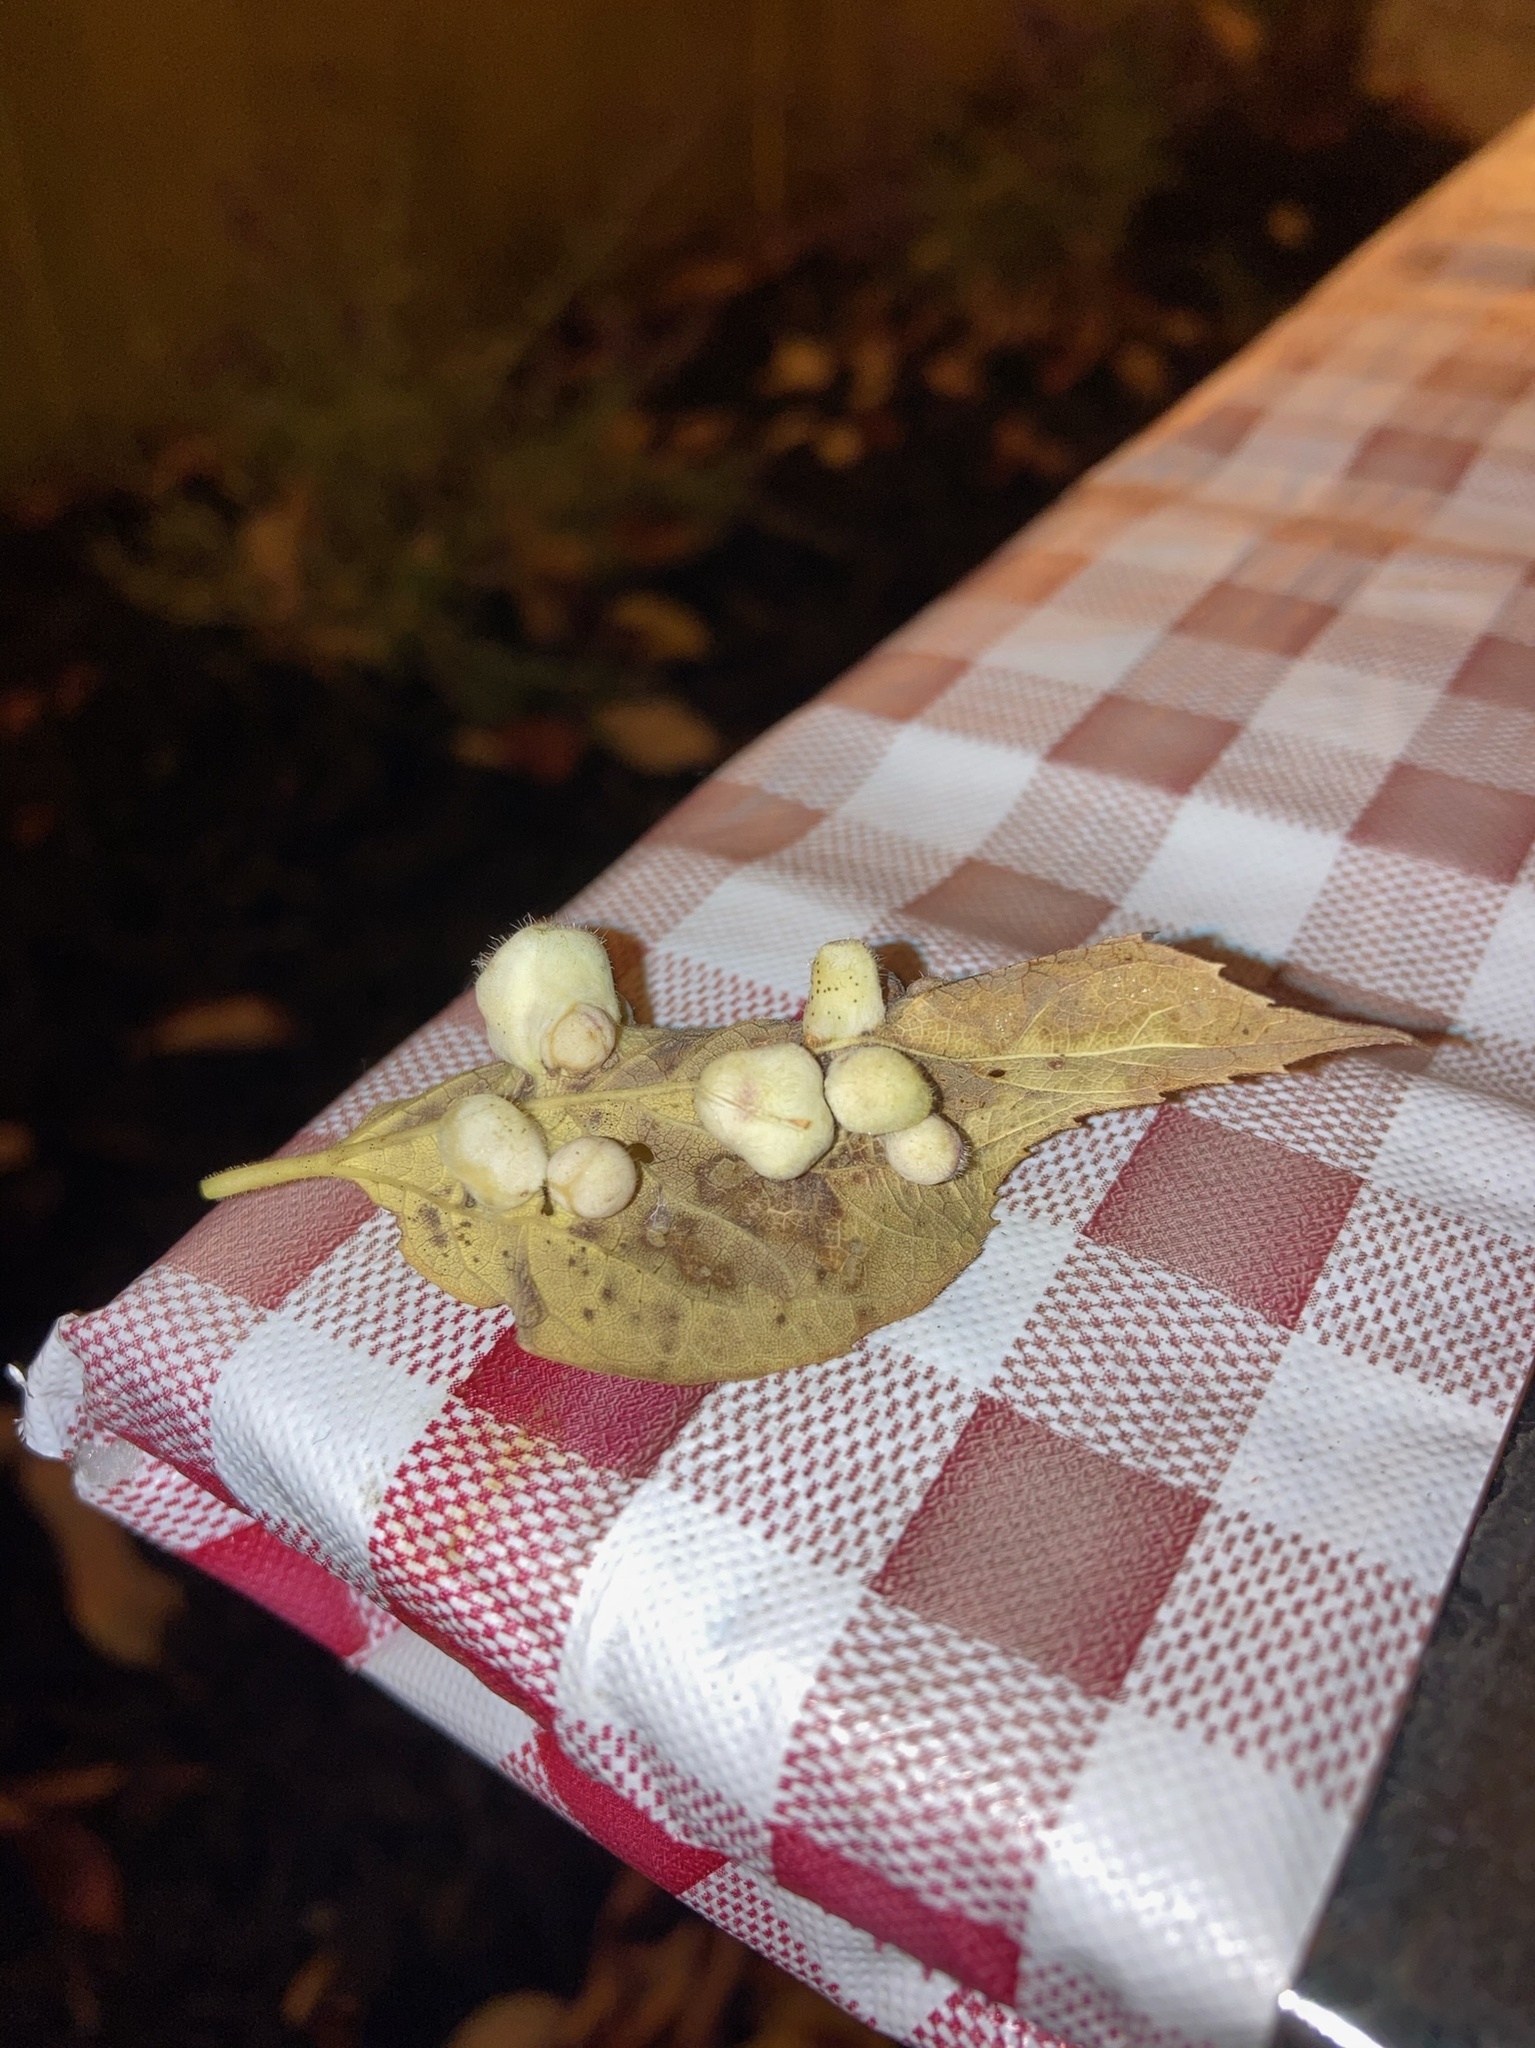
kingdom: Animalia
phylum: Arthropoda
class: Insecta
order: Hemiptera
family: Aphalaridae
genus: Pachypsylla
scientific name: Pachypsylla celtidismamma
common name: Hackberry nipplegall psyllid
